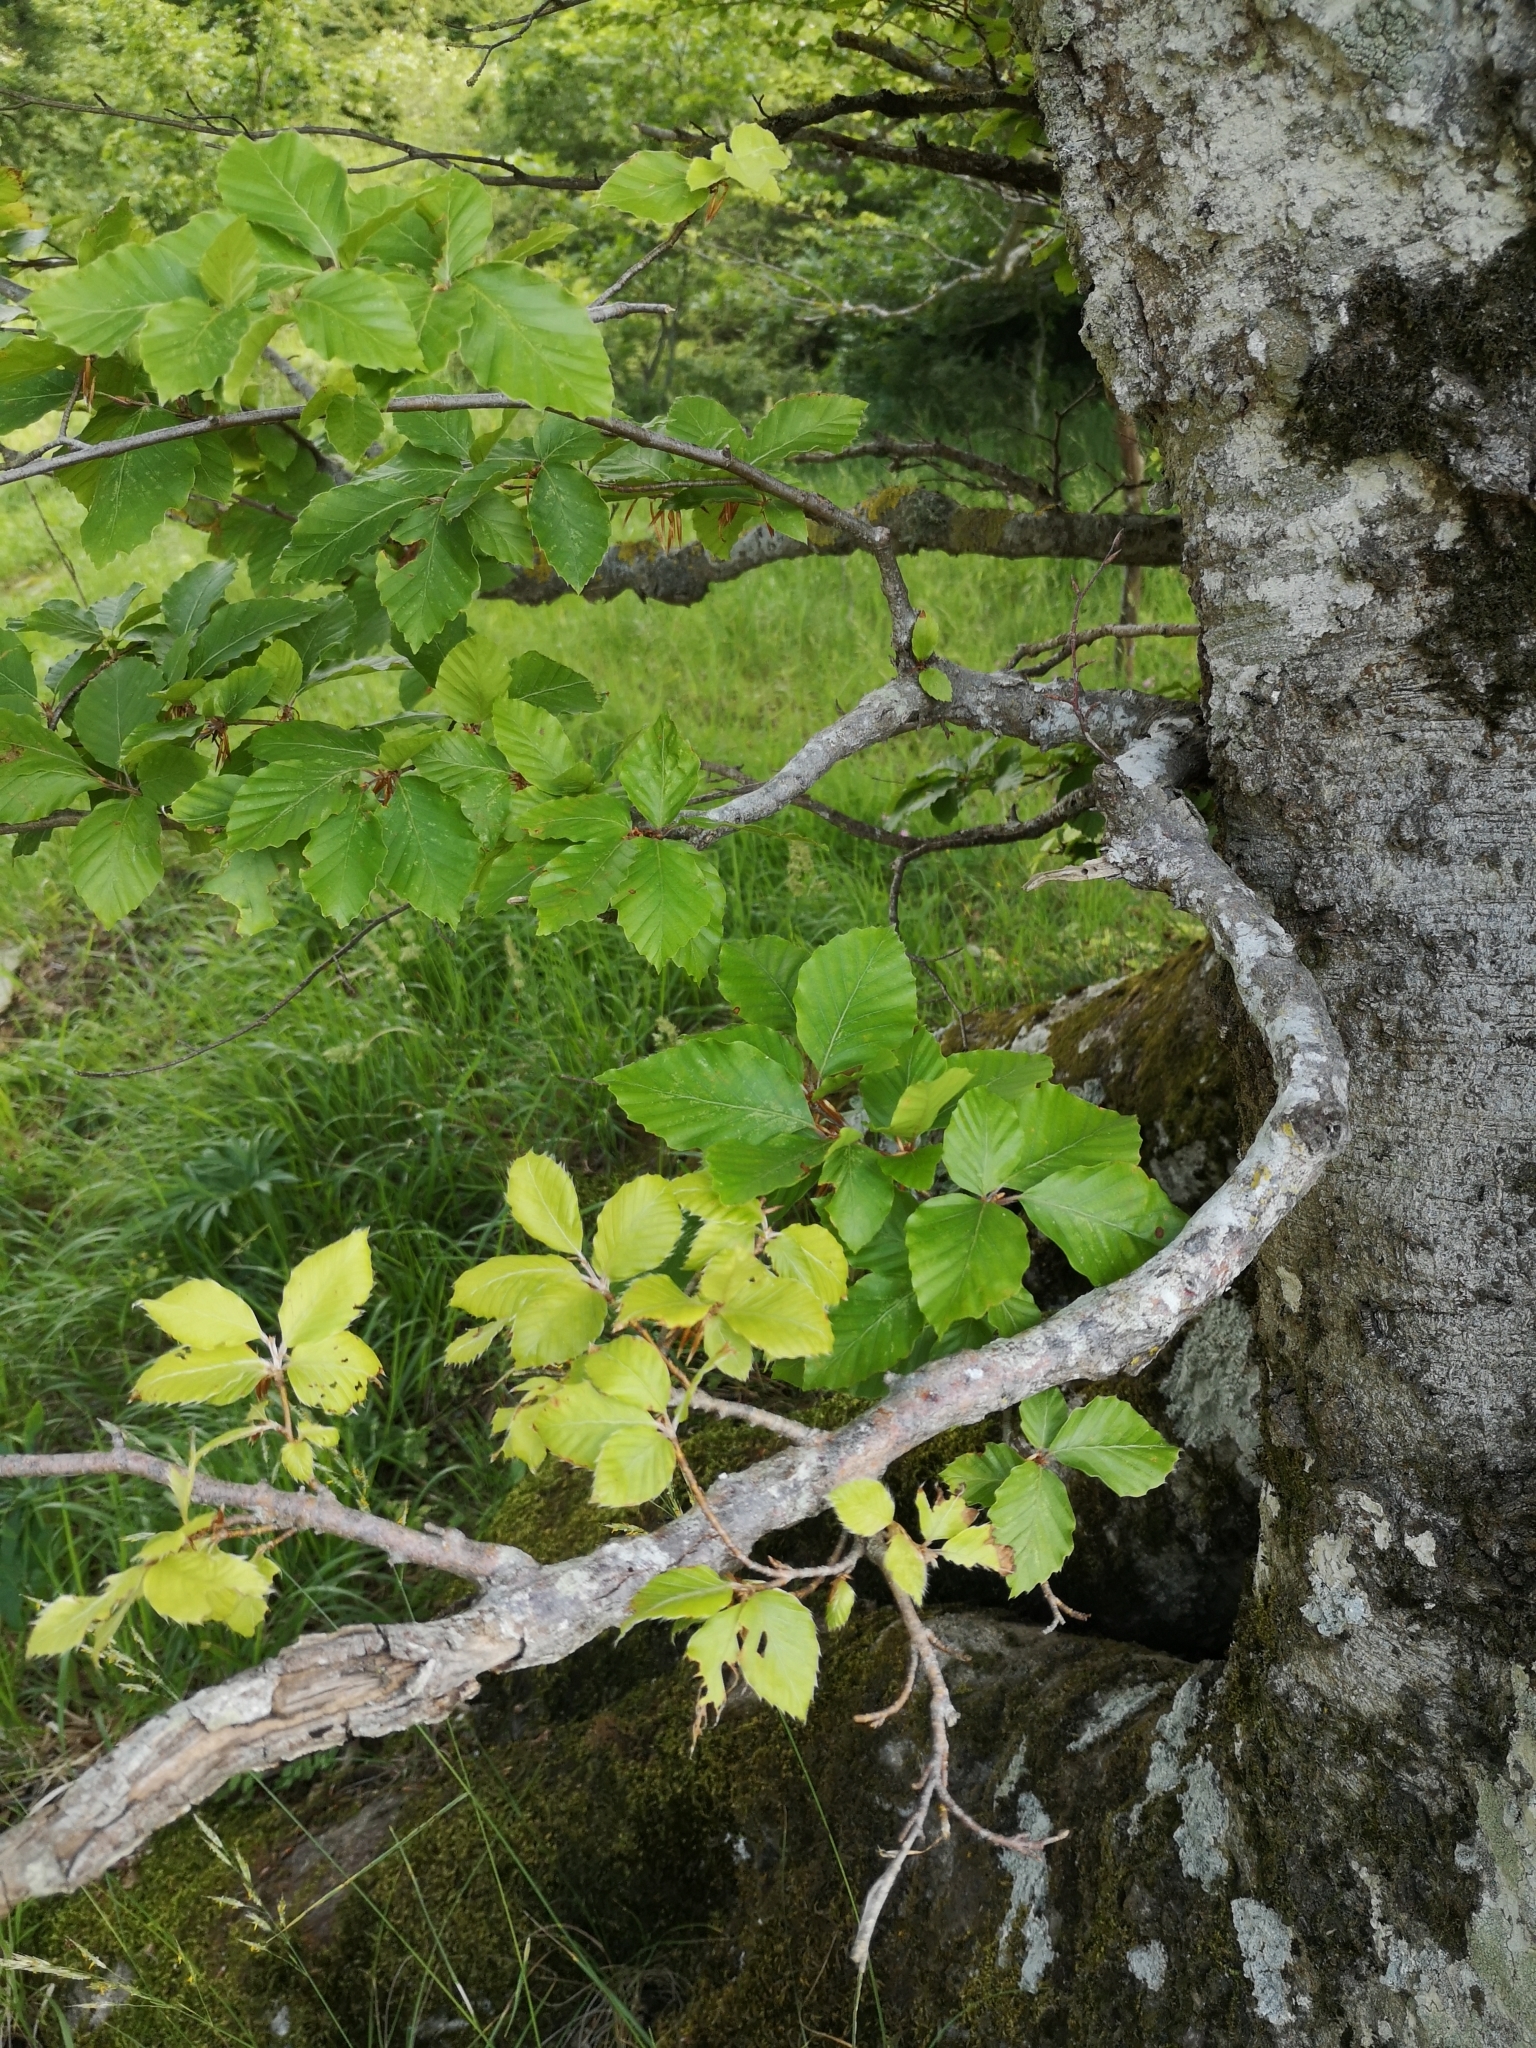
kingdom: Plantae
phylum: Tracheophyta
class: Magnoliopsida
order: Fagales
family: Fagaceae
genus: Fagus
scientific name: Fagus sylvatica
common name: Beech
